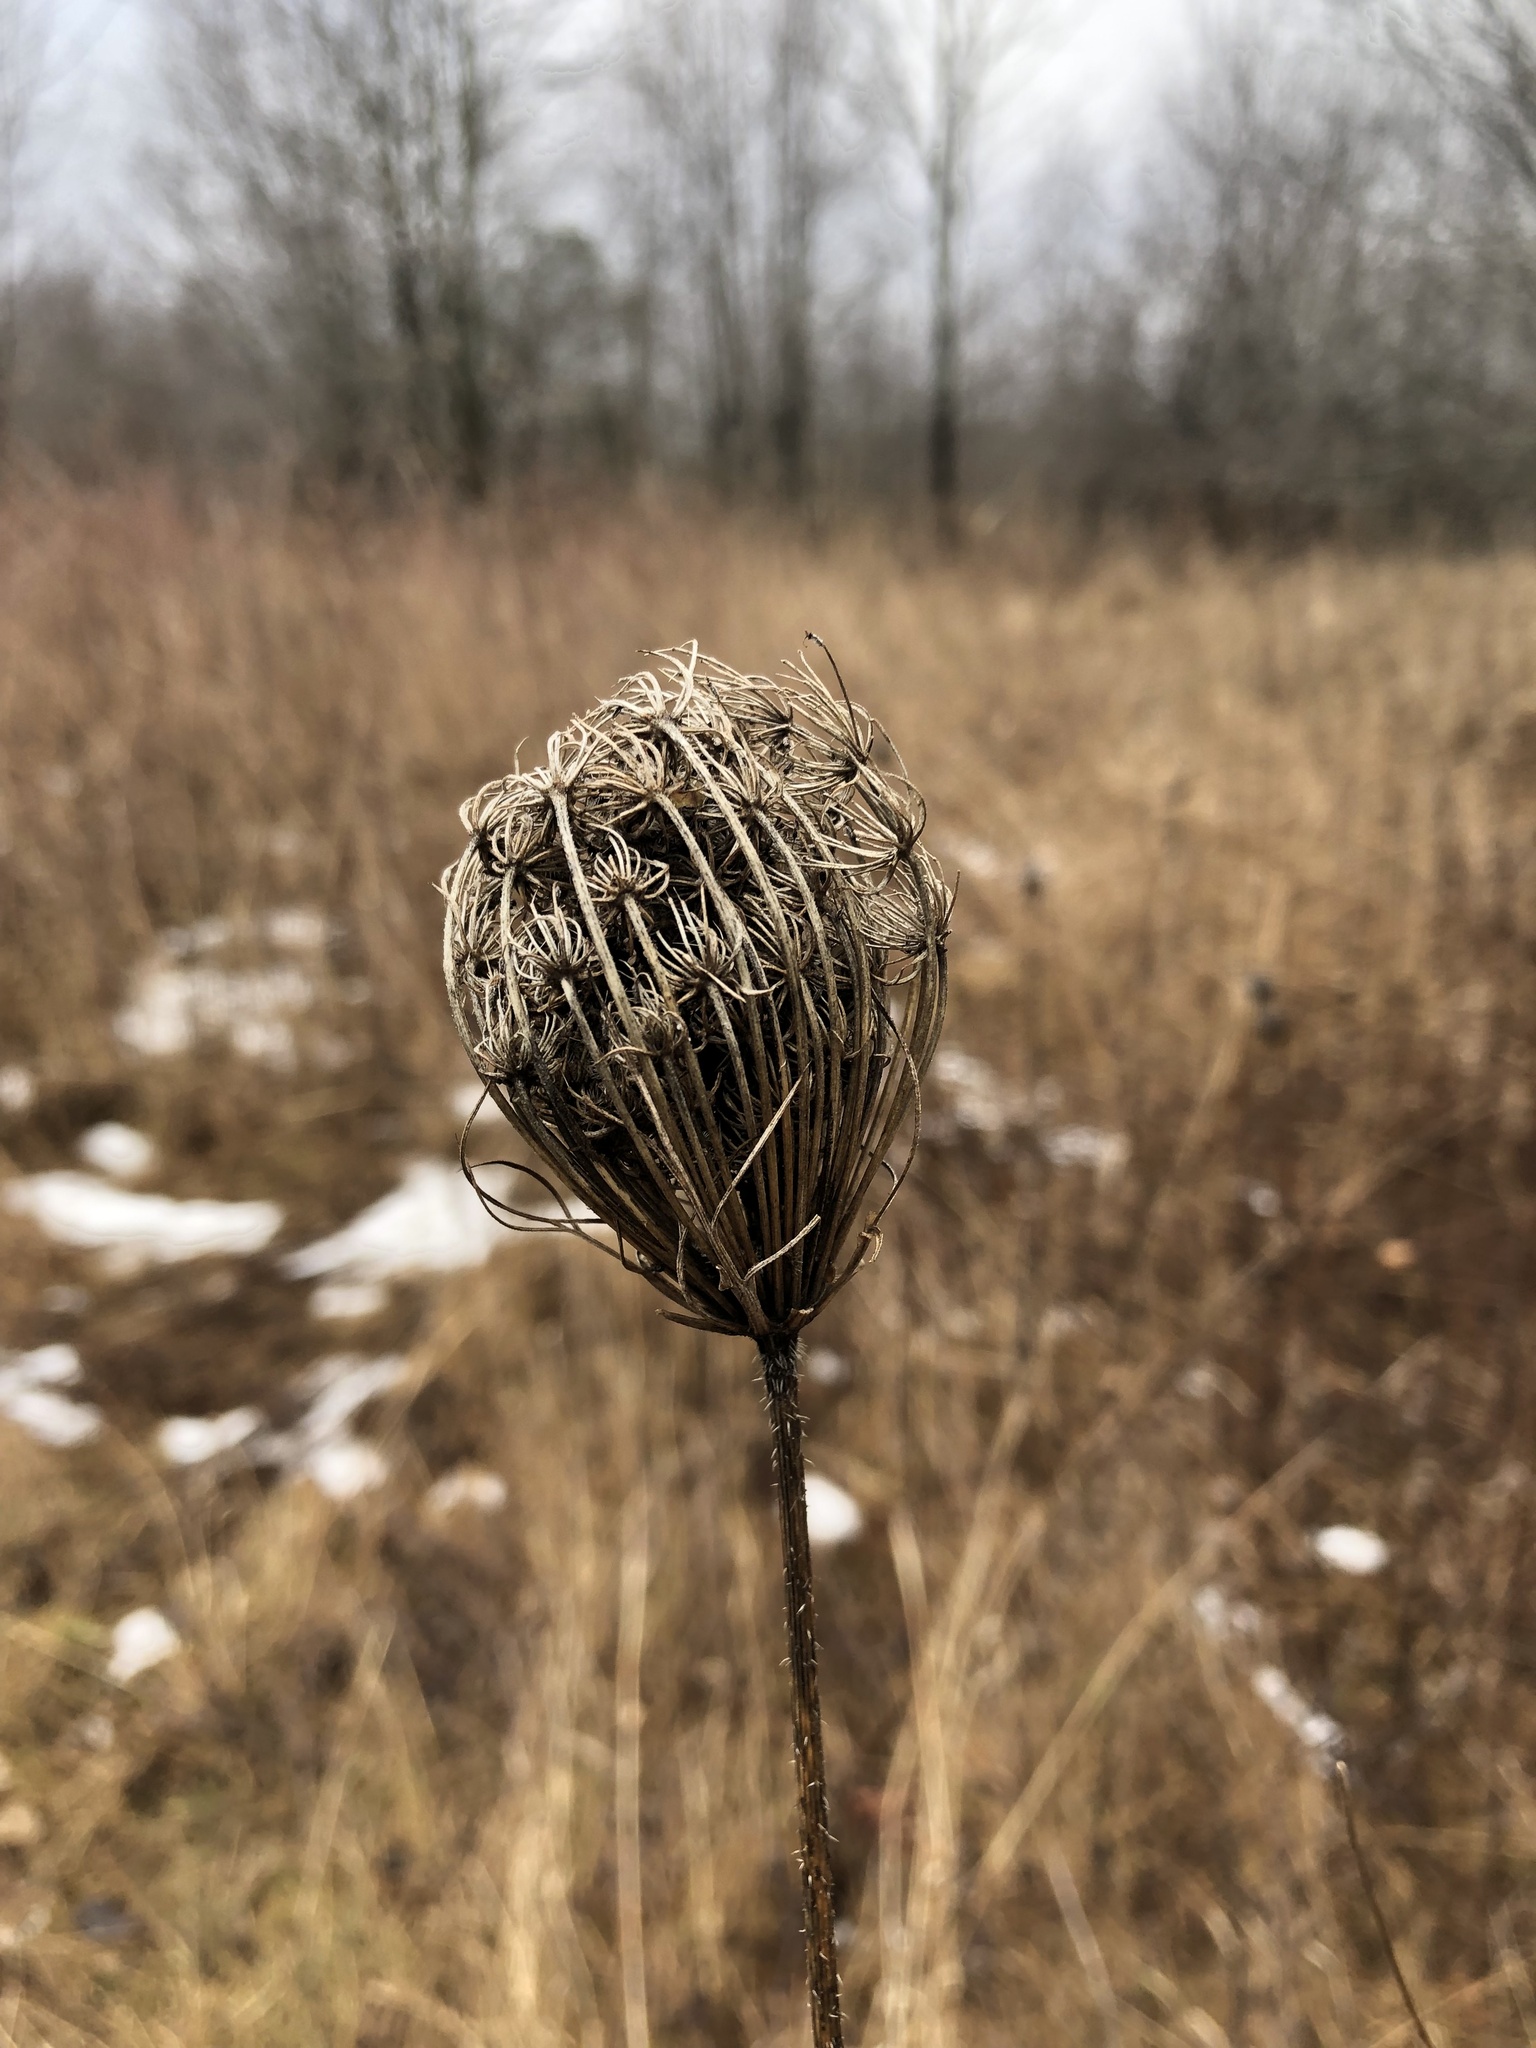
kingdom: Plantae
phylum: Tracheophyta
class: Magnoliopsida
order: Apiales
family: Apiaceae
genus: Daucus
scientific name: Daucus carota
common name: Wild carrot
